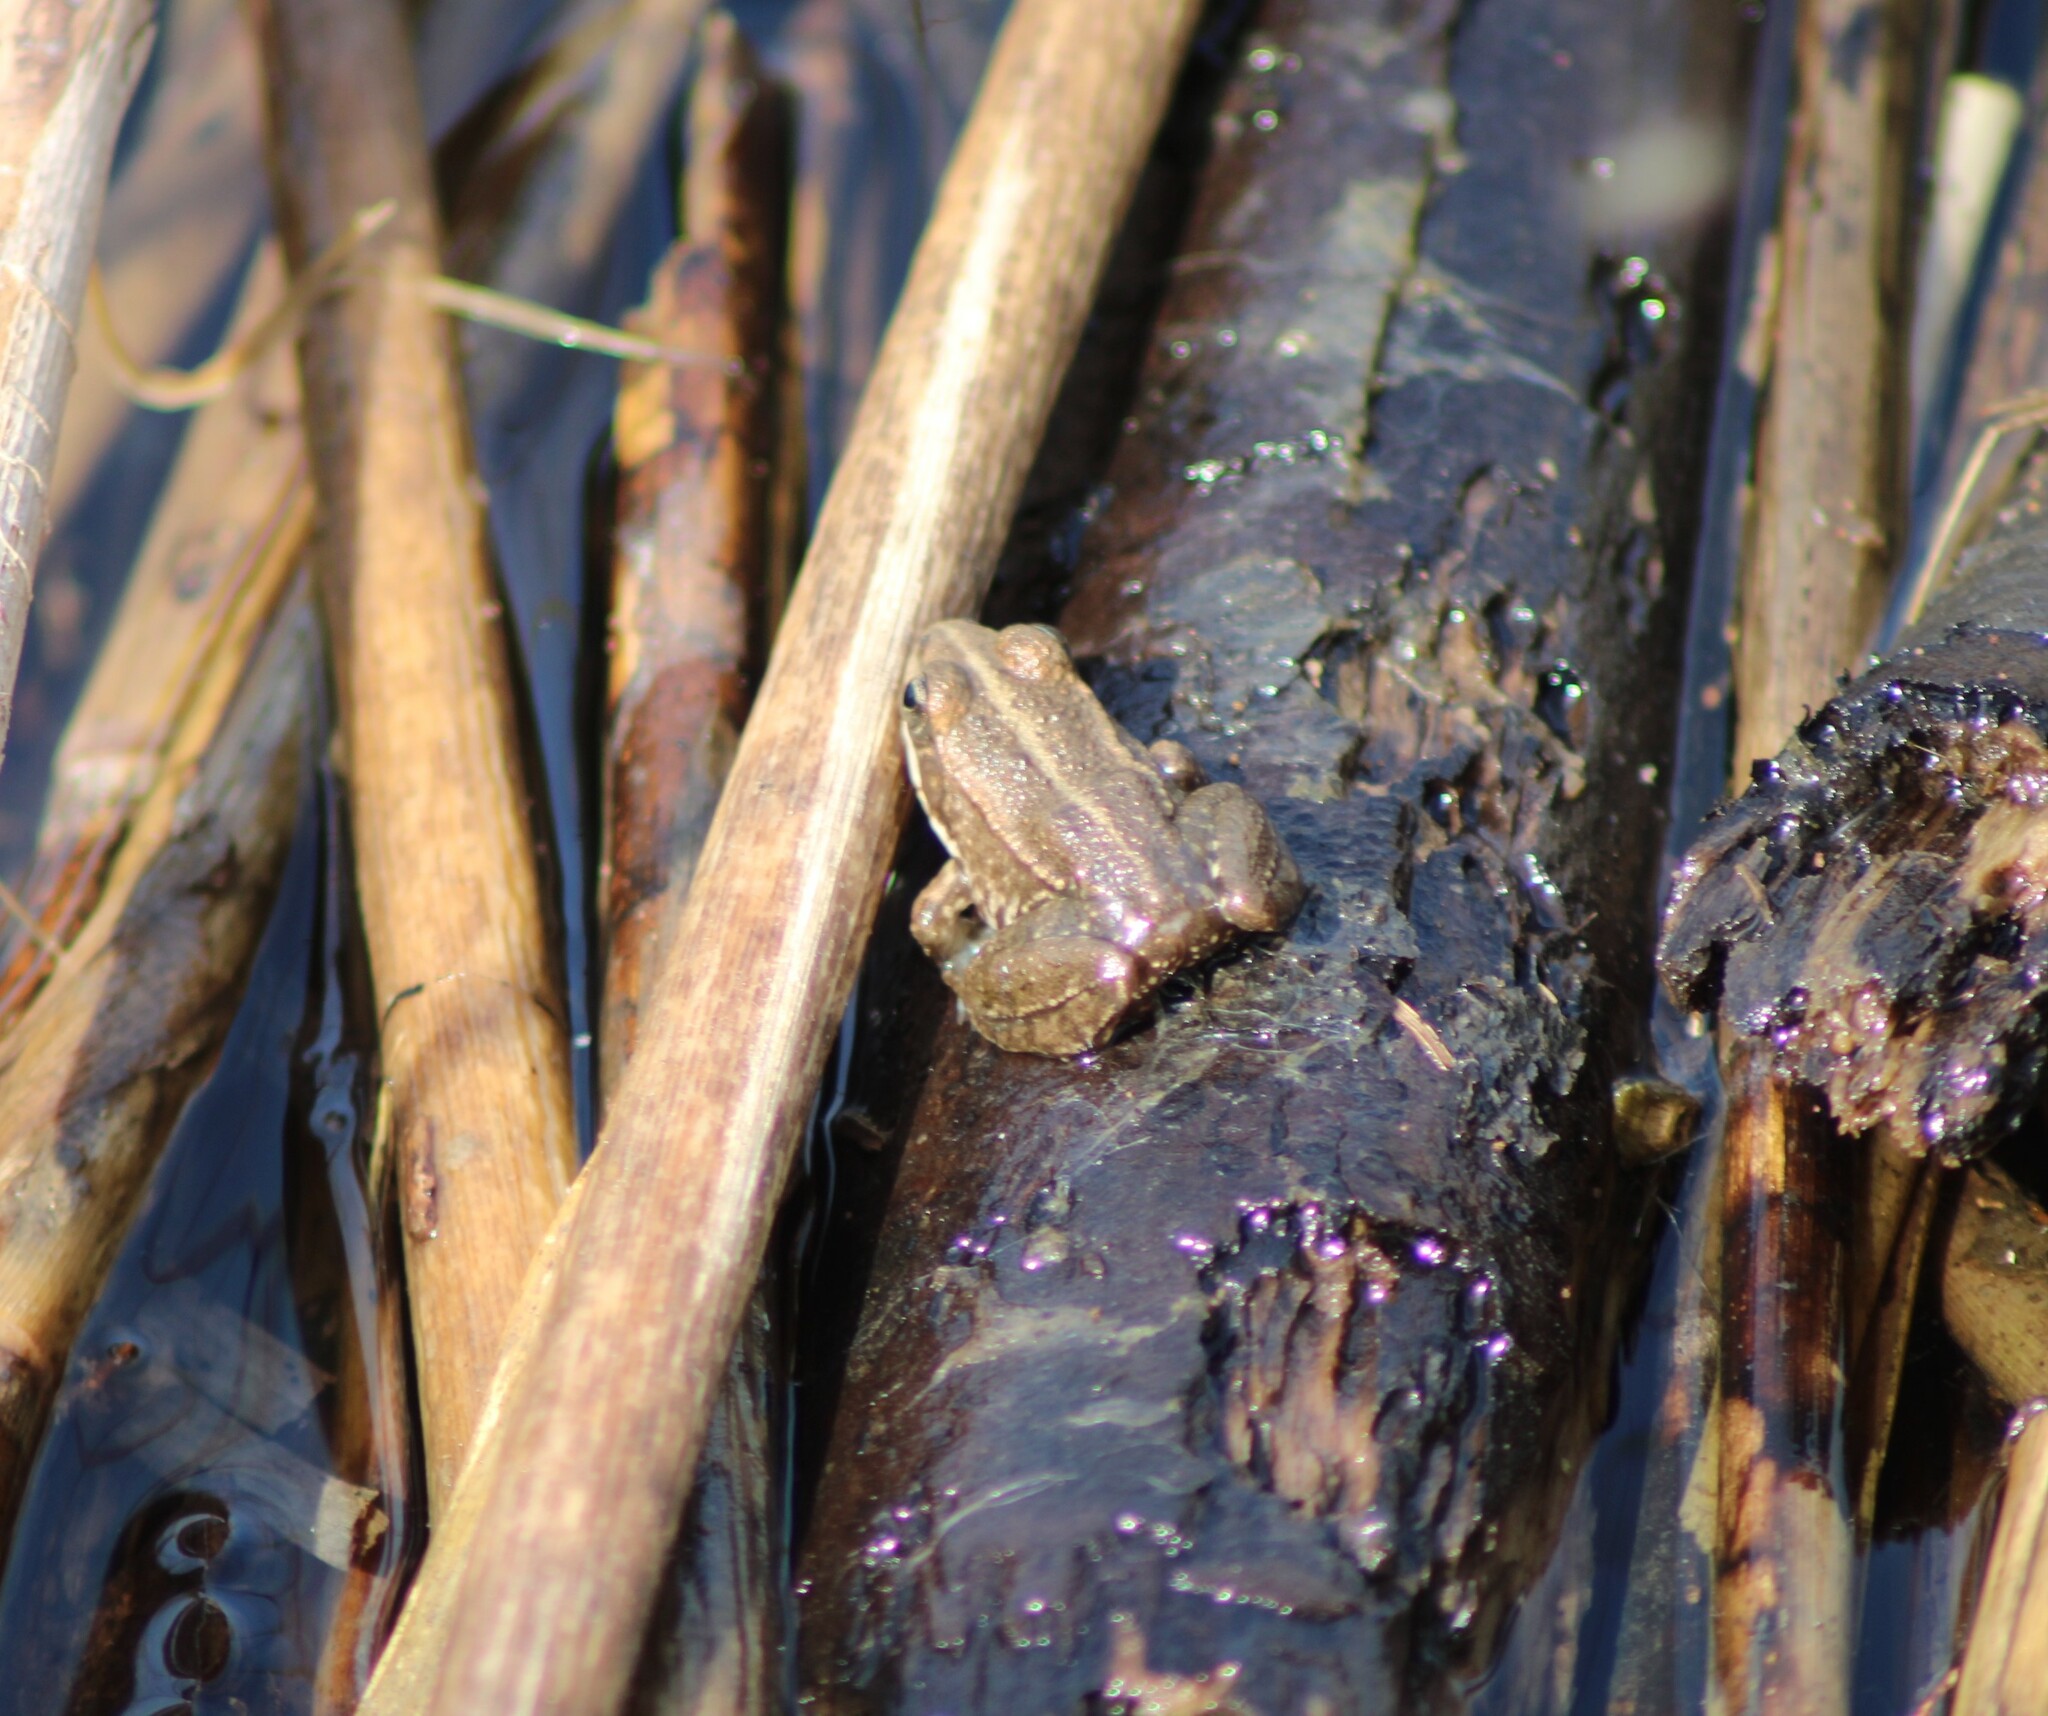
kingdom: Animalia
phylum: Chordata
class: Amphibia
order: Anura
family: Ranidae
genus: Pelophylax
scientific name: Pelophylax
